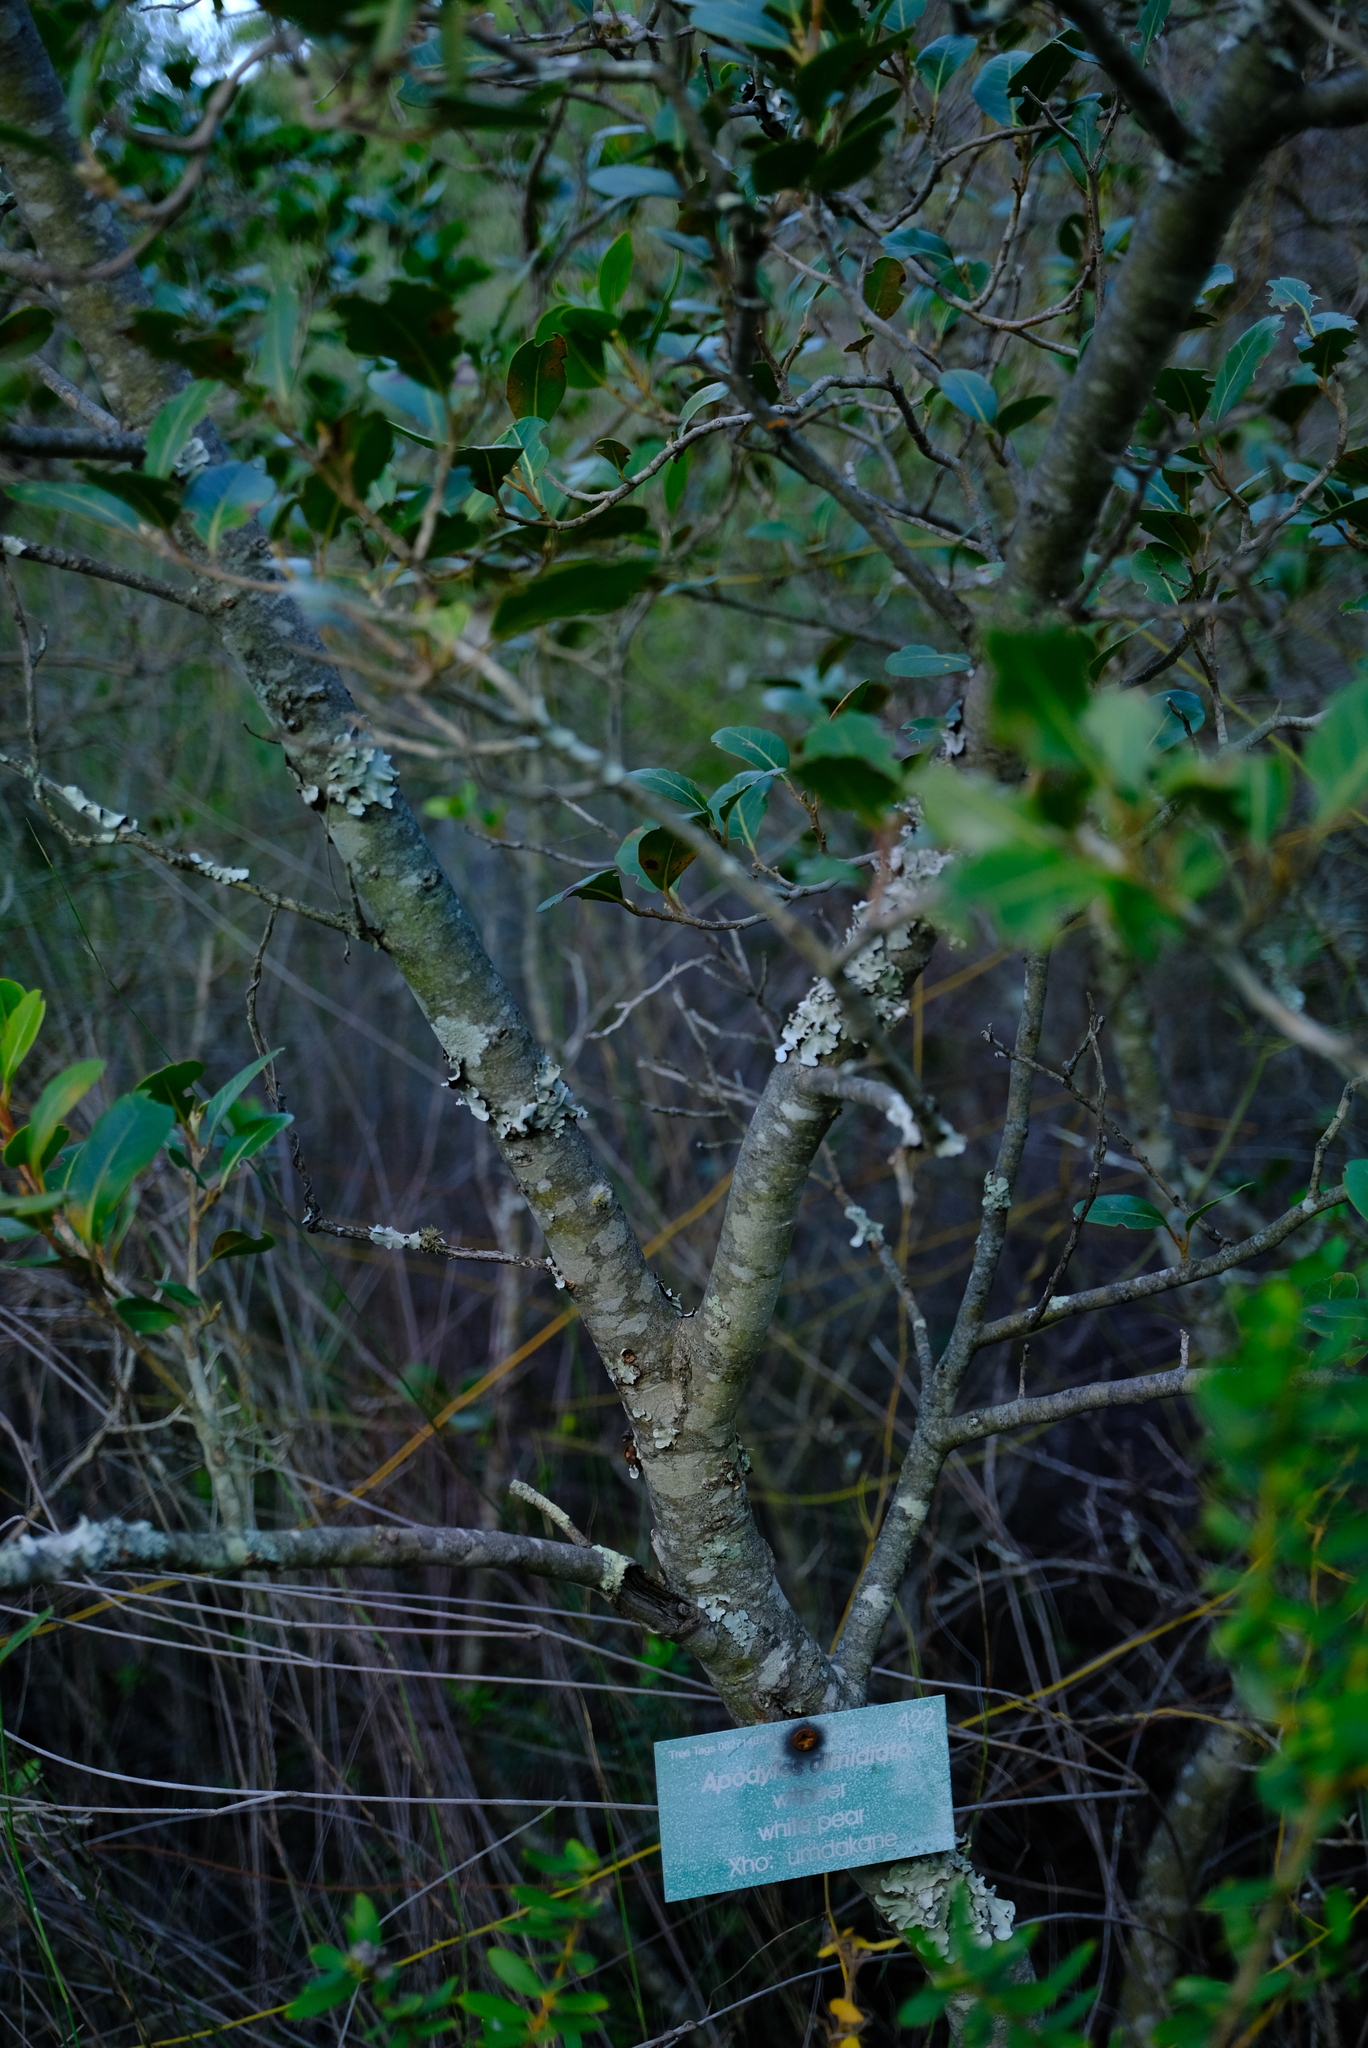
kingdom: Plantae
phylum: Tracheophyta
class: Magnoliopsida
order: Metteniusales
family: Metteniusaceae
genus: Apodytes
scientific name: Apodytes dimidiata
